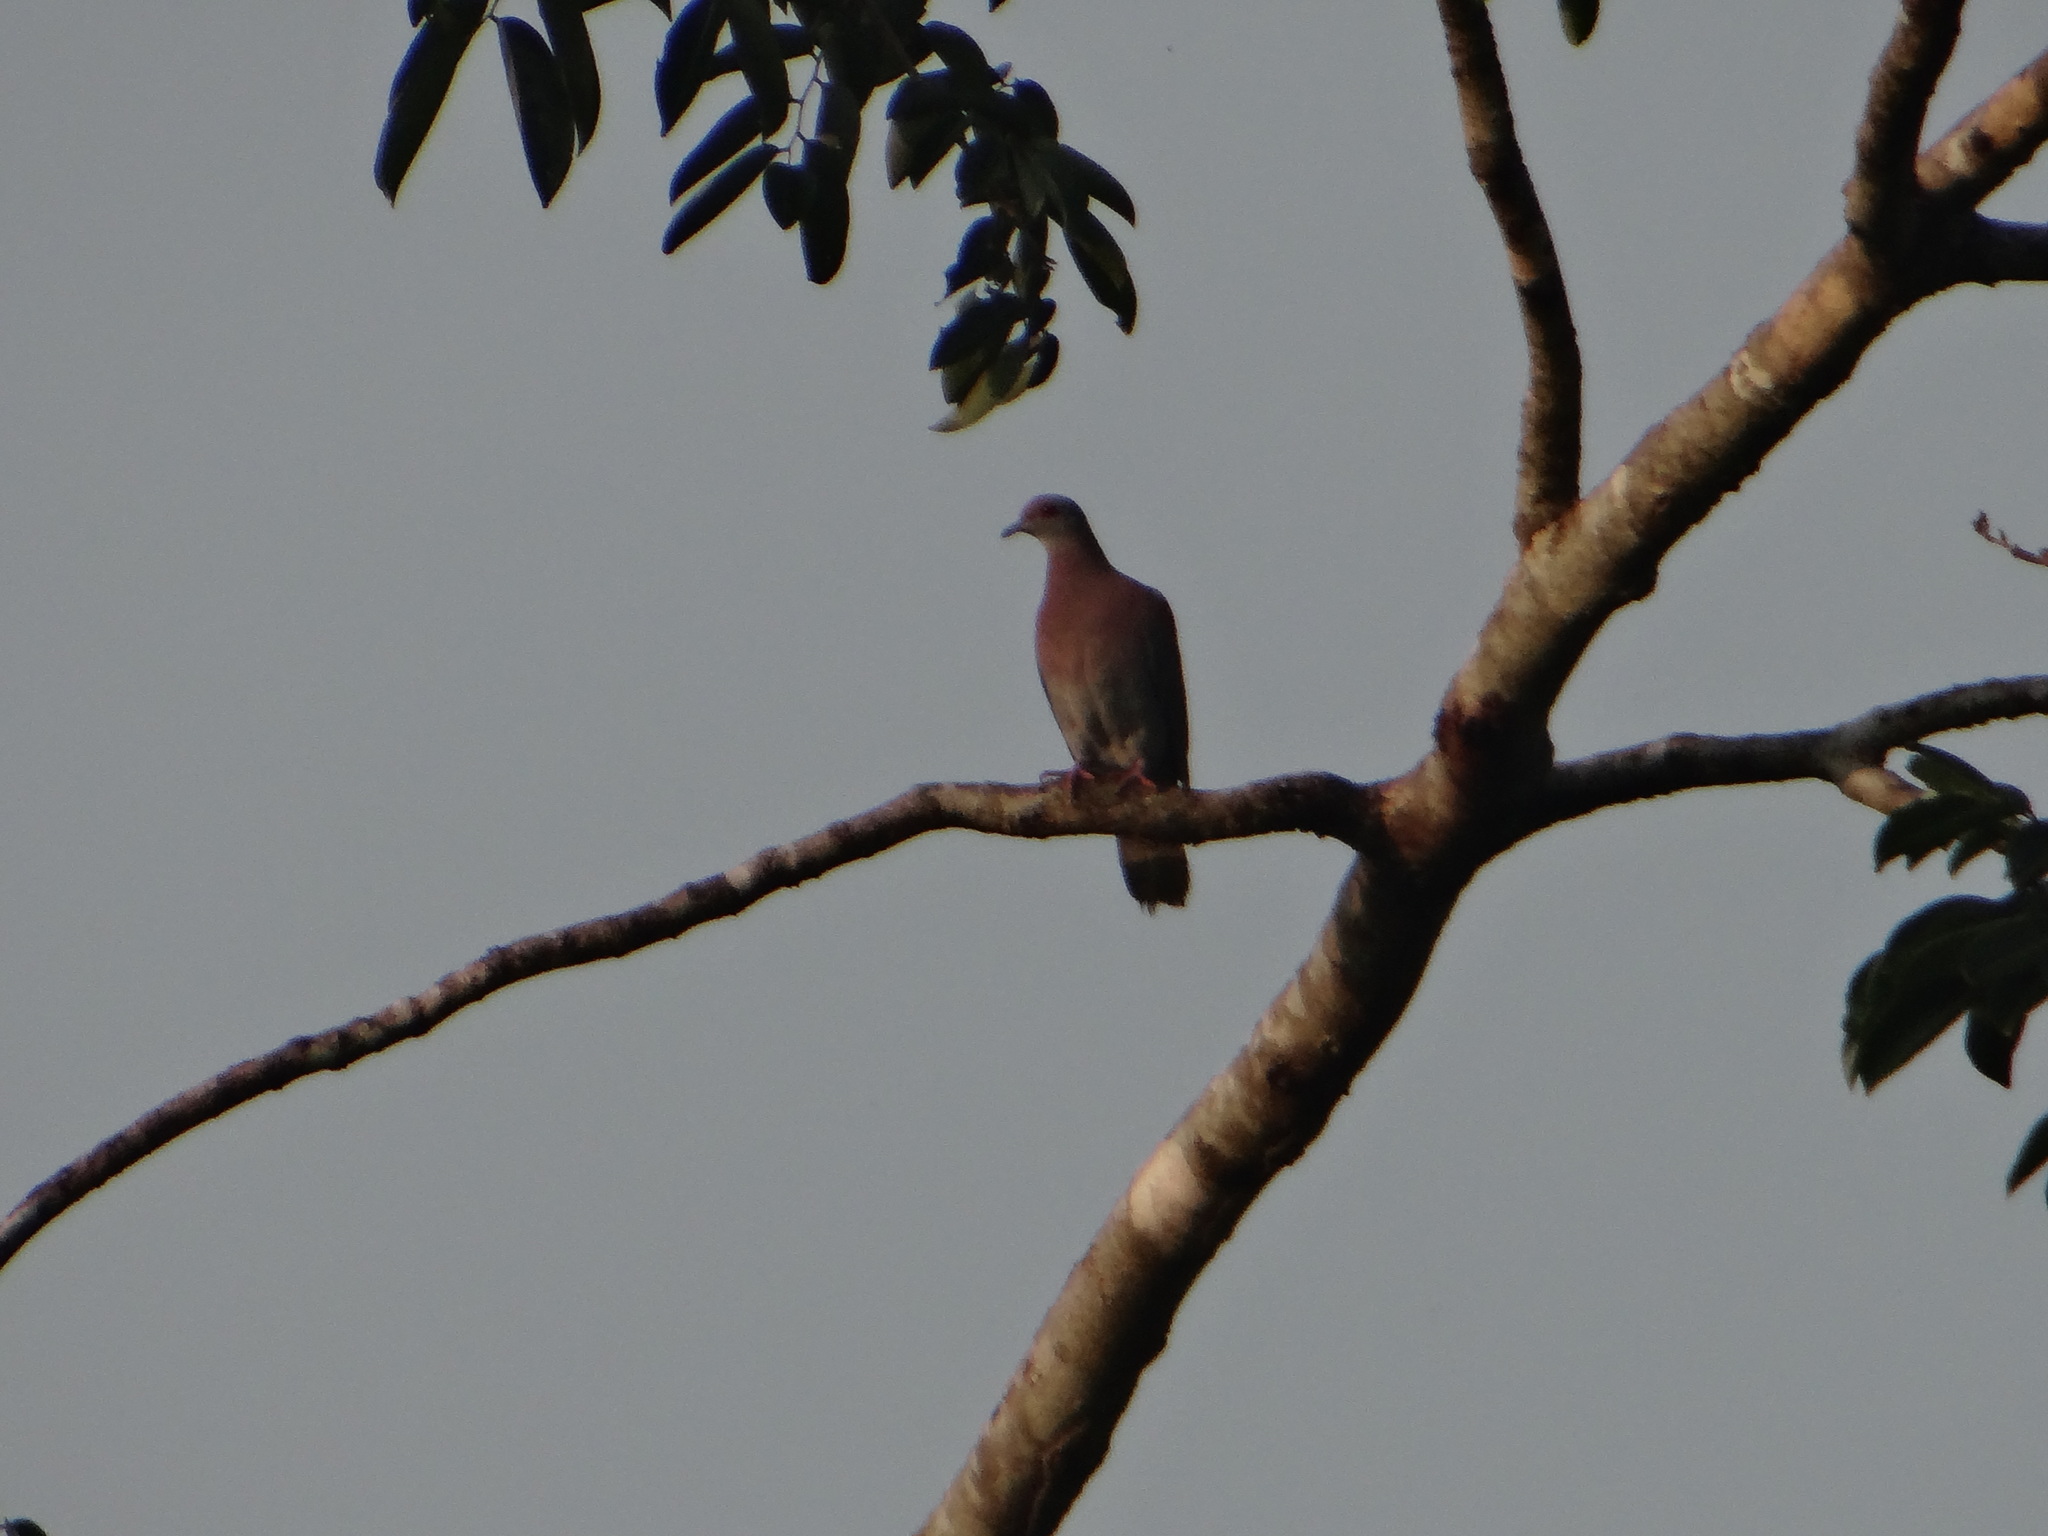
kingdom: Animalia
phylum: Chordata
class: Aves
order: Columbiformes
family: Columbidae
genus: Patagioenas
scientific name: Patagioenas cayennensis
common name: Pale-vented pigeon
